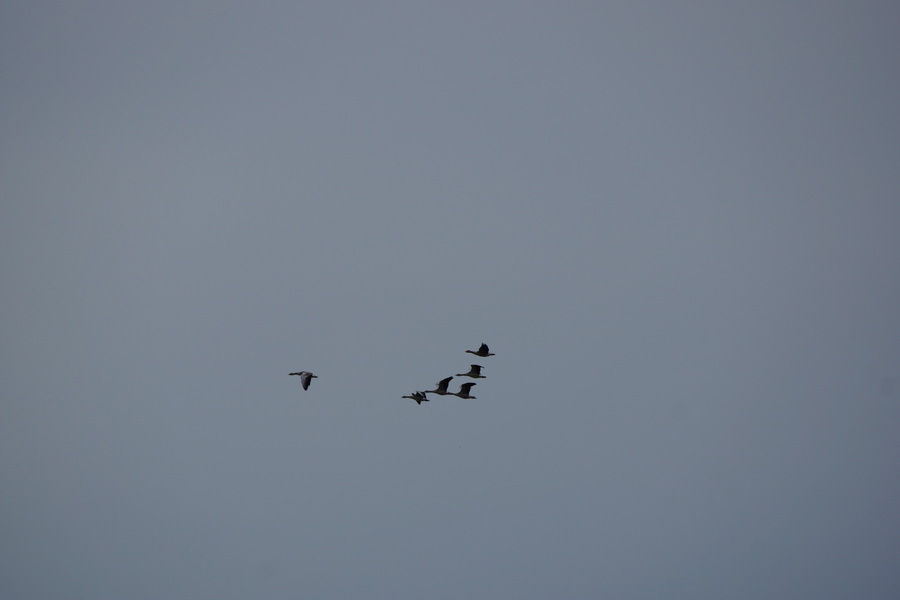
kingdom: Animalia
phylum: Chordata
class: Aves
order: Anseriformes
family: Anatidae
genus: Anser
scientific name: Anser anser
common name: Greylag goose
